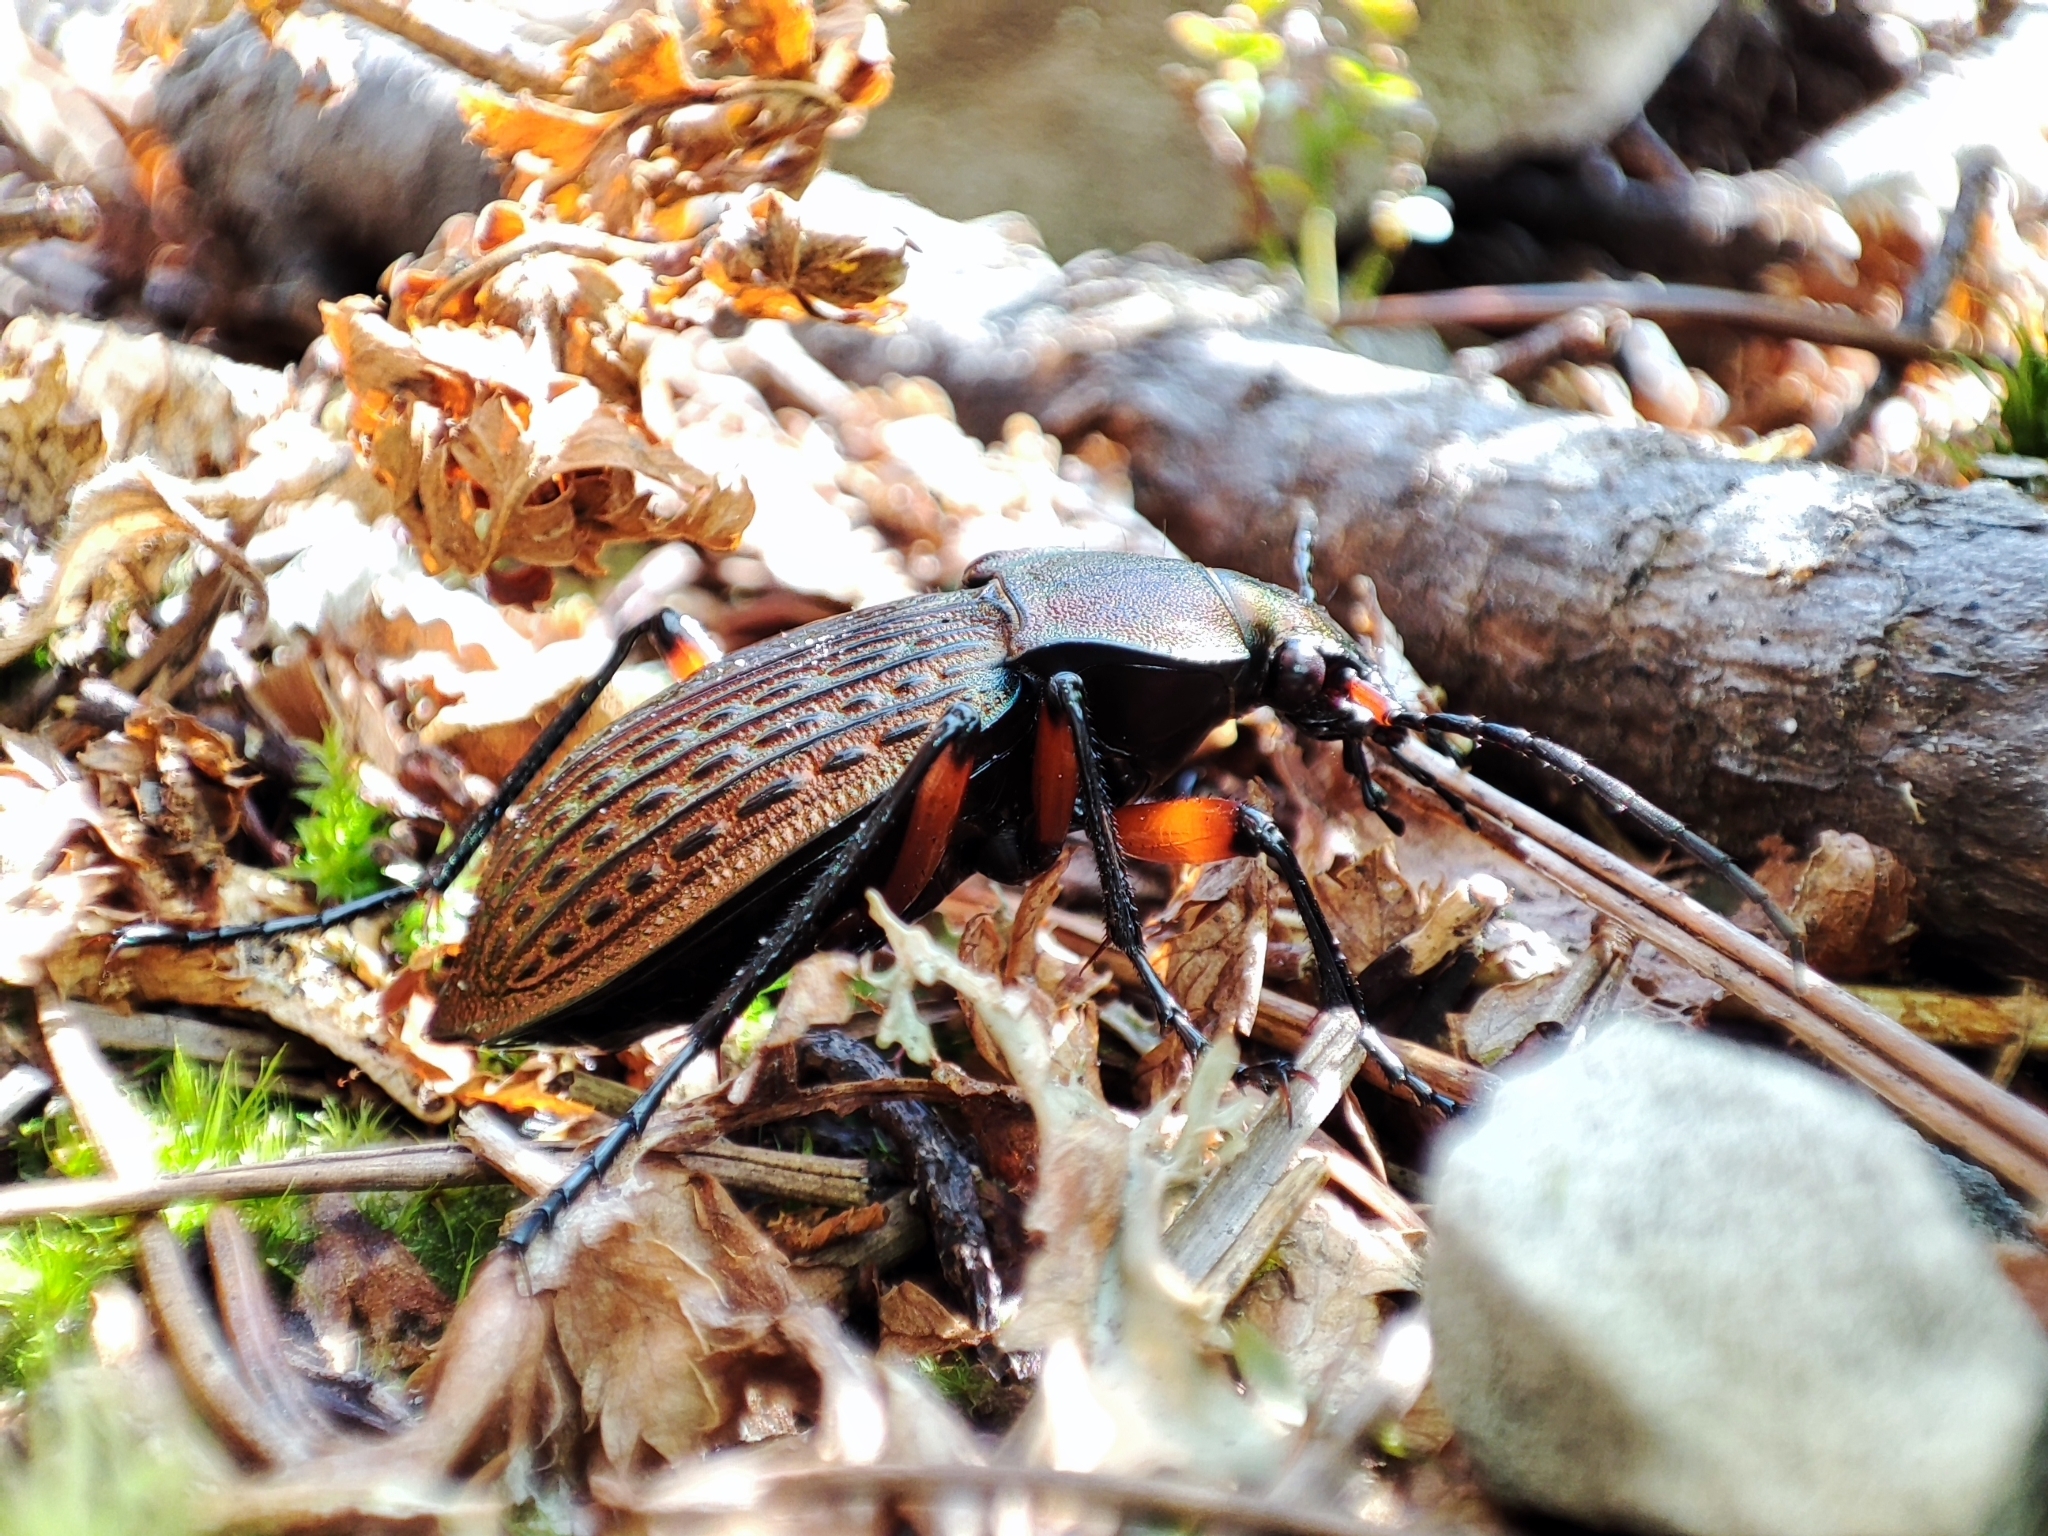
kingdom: Animalia
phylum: Arthropoda
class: Insecta
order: Coleoptera
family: Carabidae
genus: Carabus
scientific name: Carabus cancellatus
